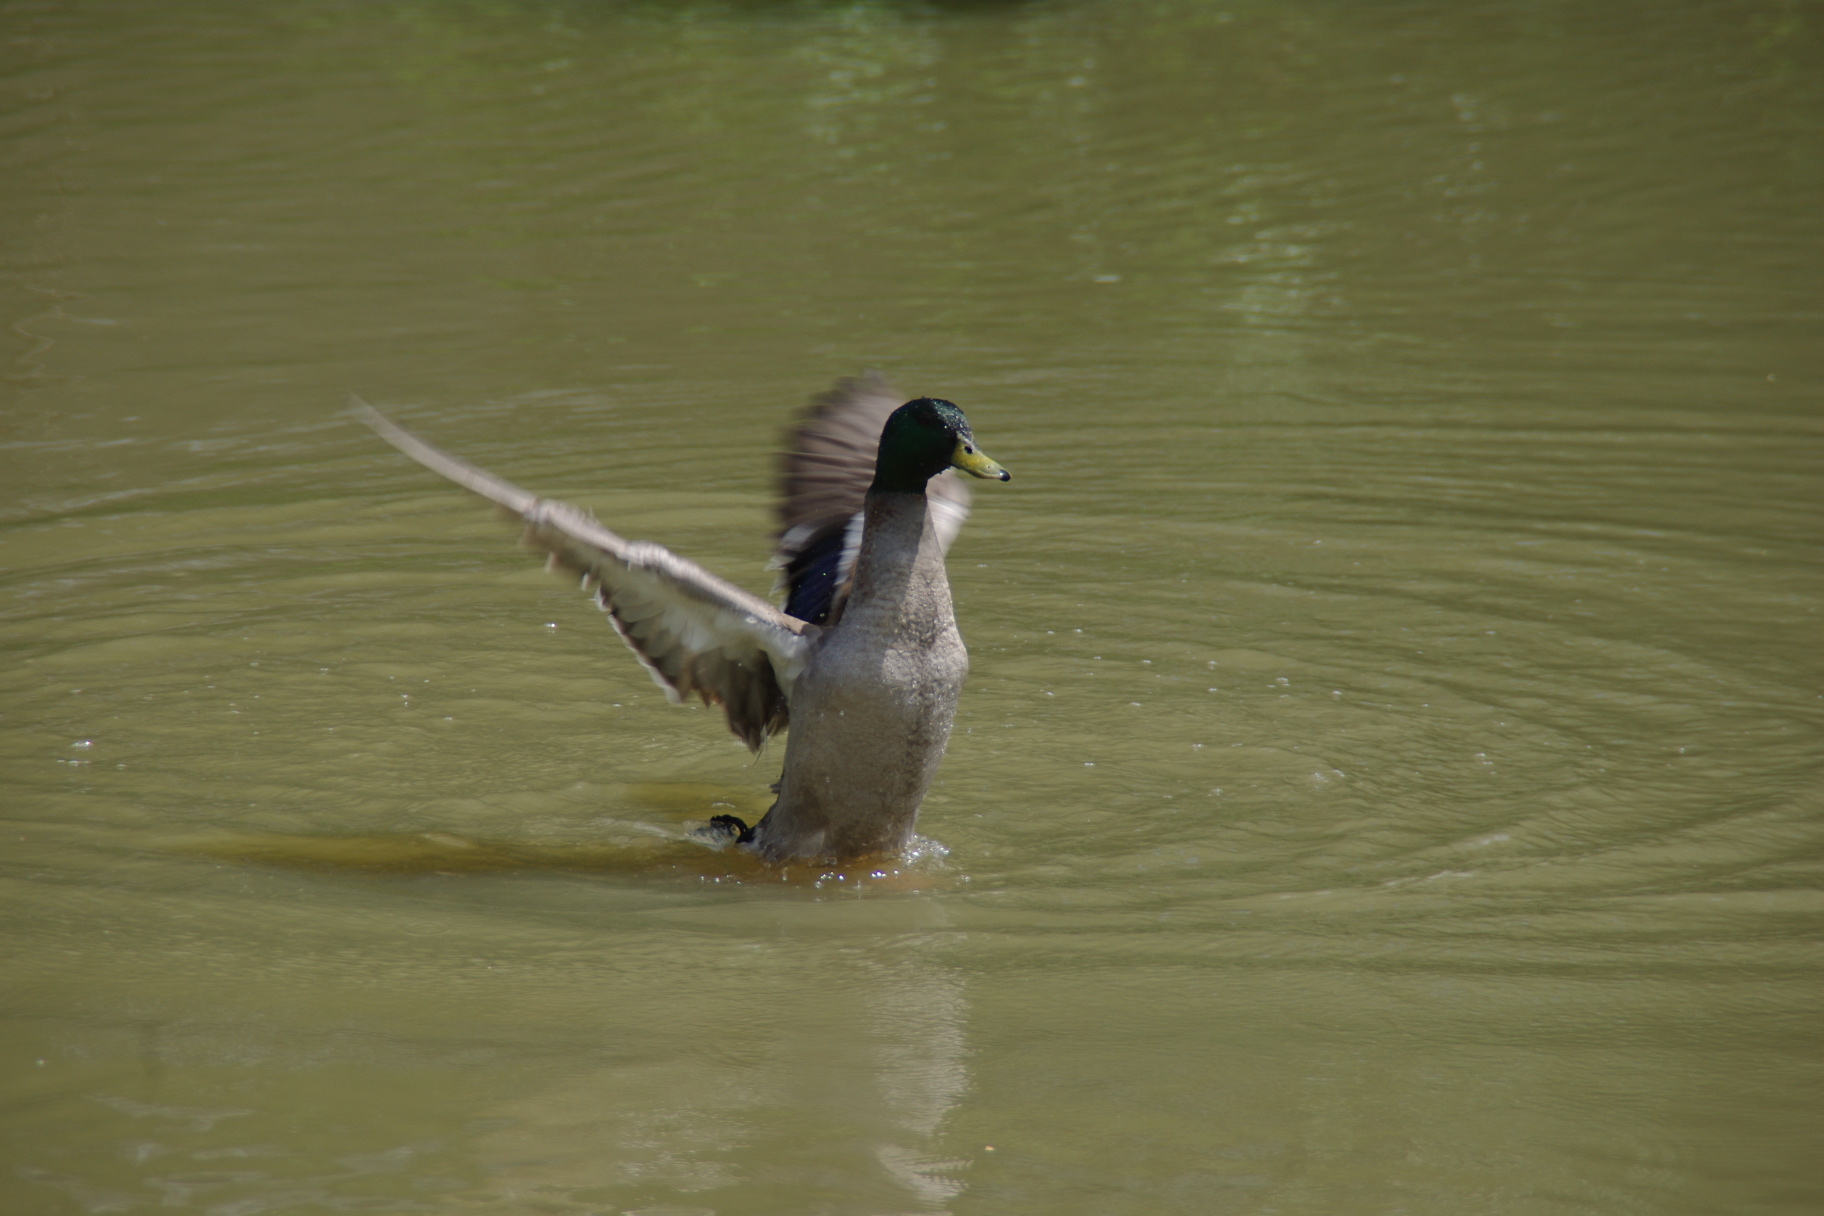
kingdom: Animalia
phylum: Chordata
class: Aves
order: Anseriformes
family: Anatidae
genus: Anas
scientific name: Anas platyrhynchos
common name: Mallard
